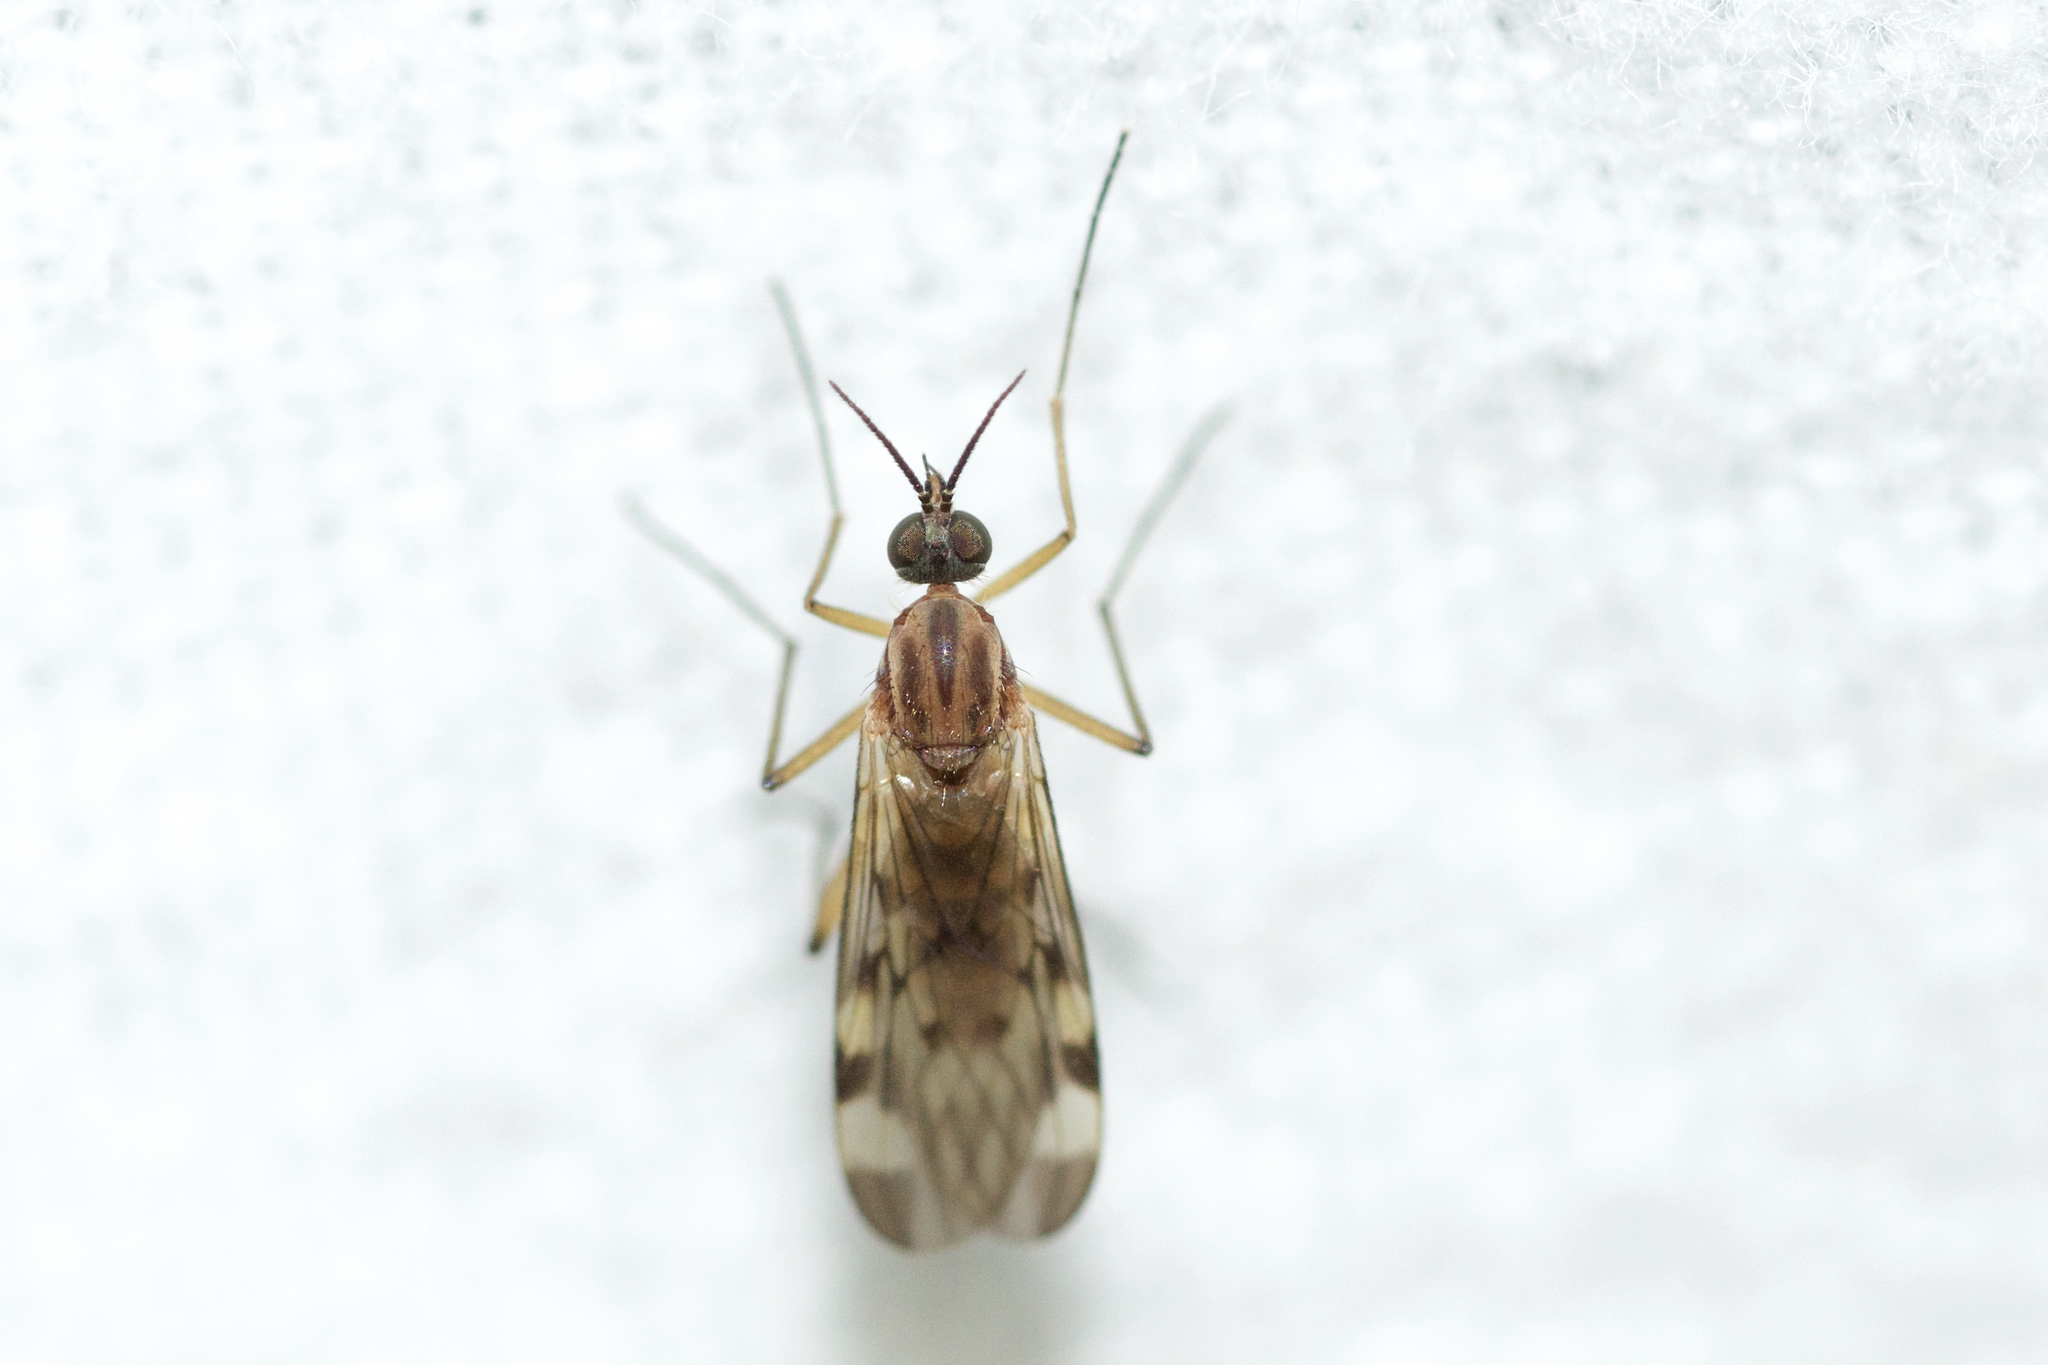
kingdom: Animalia
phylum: Arthropoda
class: Insecta
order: Diptera
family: Anisopodidae
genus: Sylvicola
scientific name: Sylvicola fenestralis
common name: Window gnat
